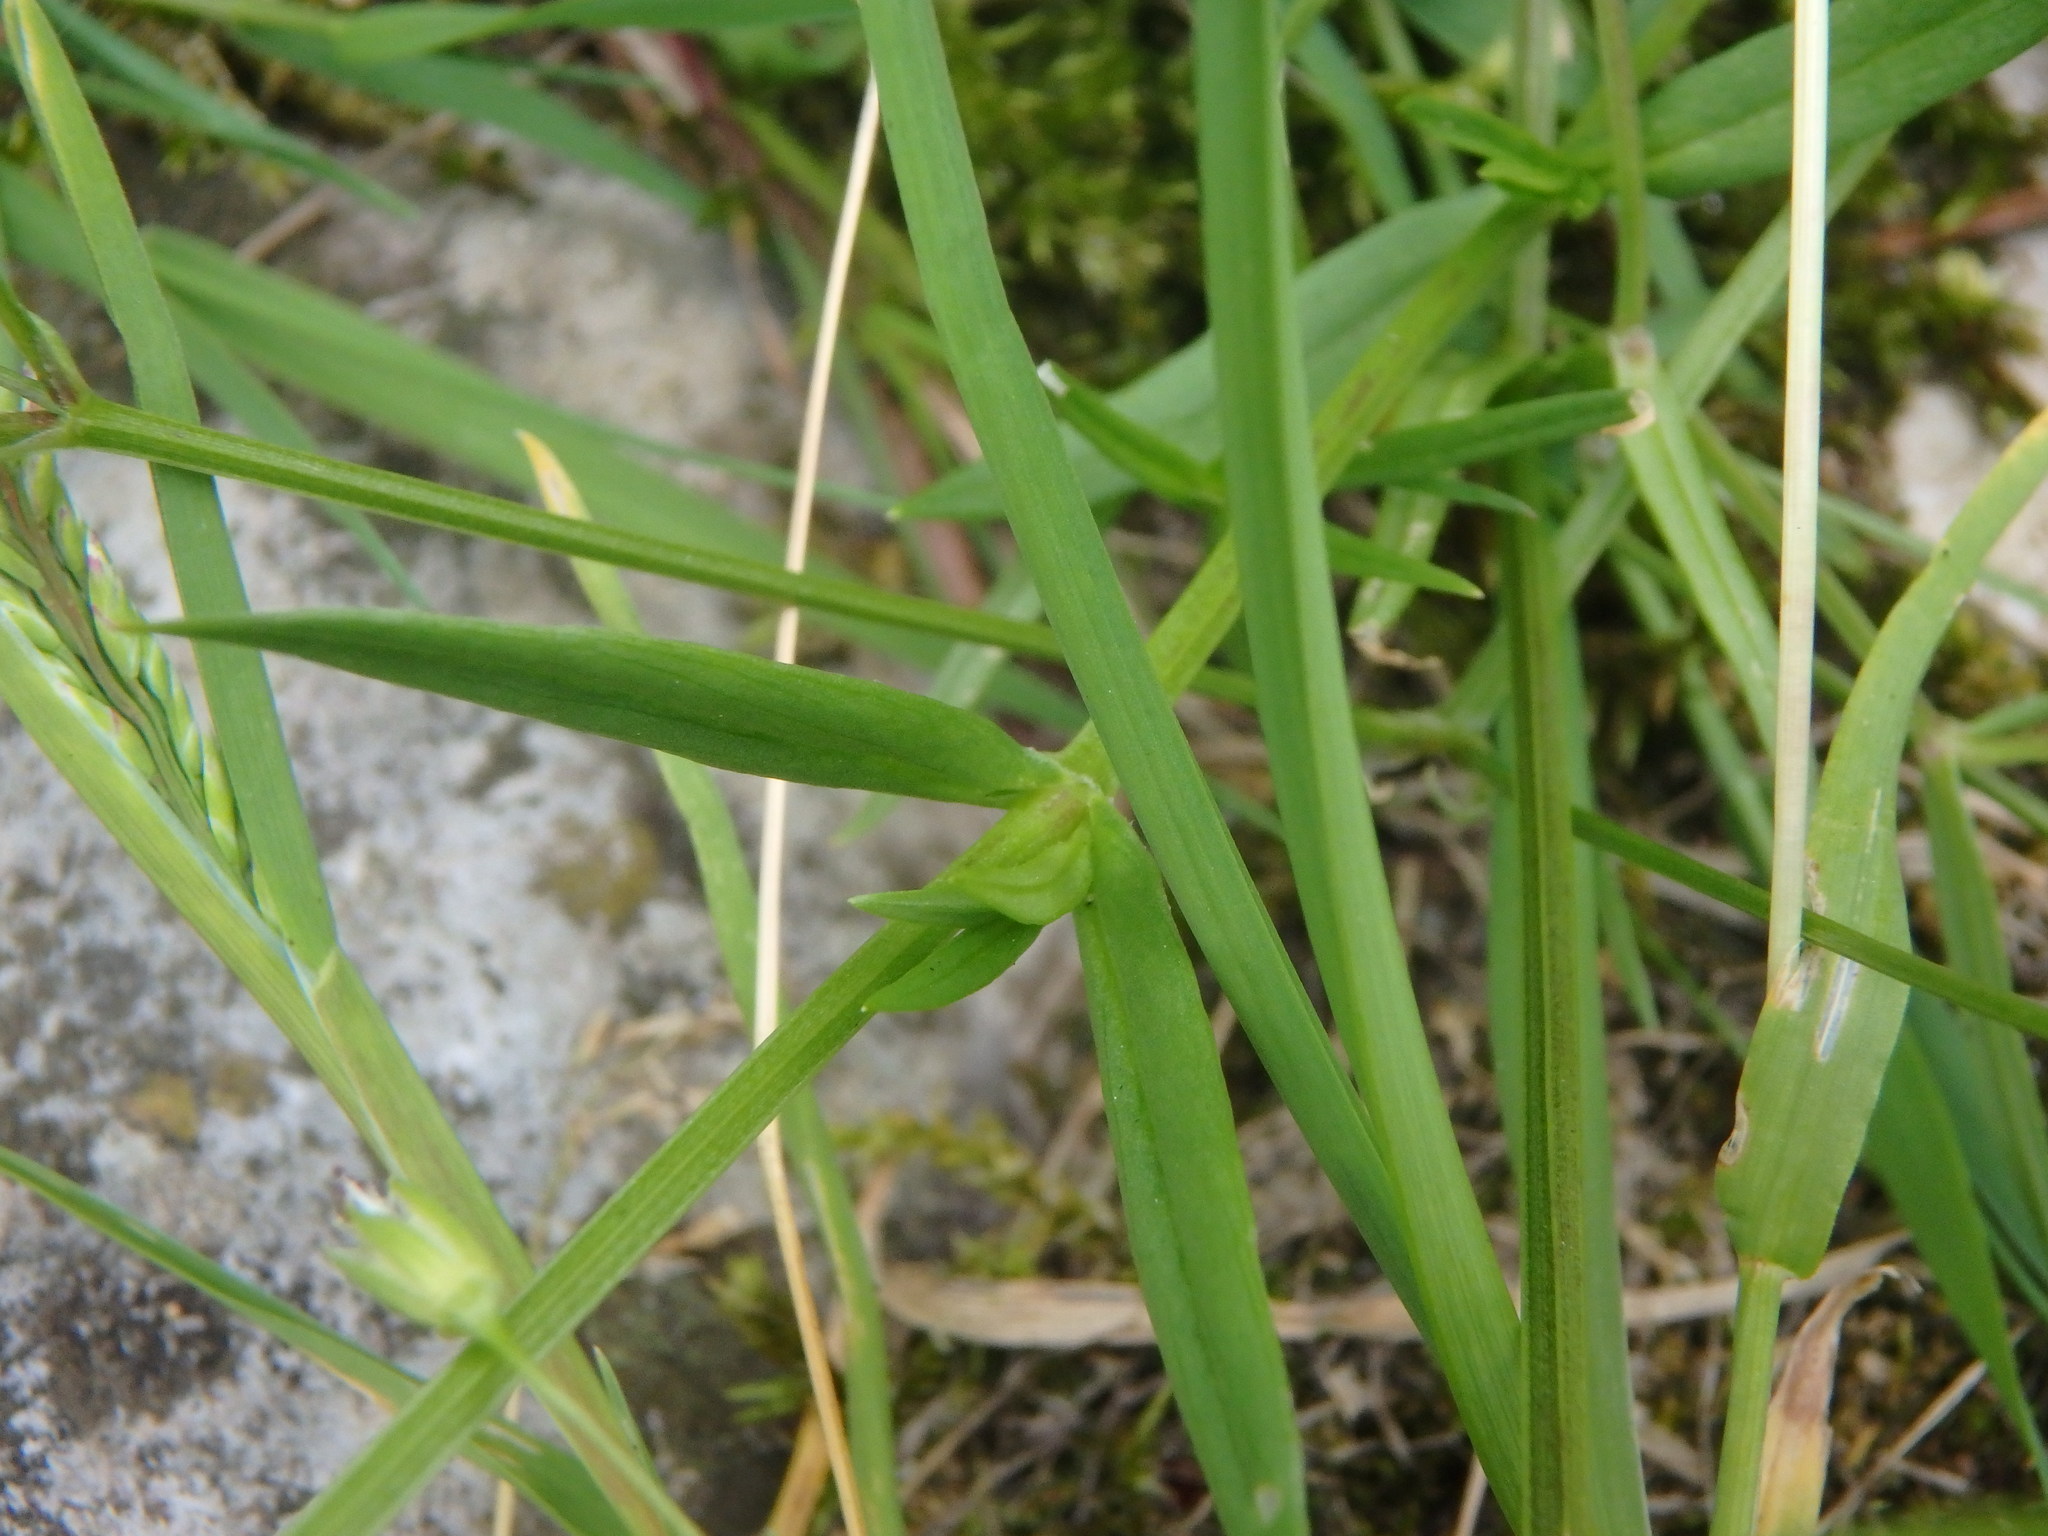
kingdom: Plantae
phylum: Tracheophyta
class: Magnoliopsida
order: Caryophyllales
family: Caryophyllaceae
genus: Stellaria
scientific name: Stellaria graminea
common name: Grass-like starwort
